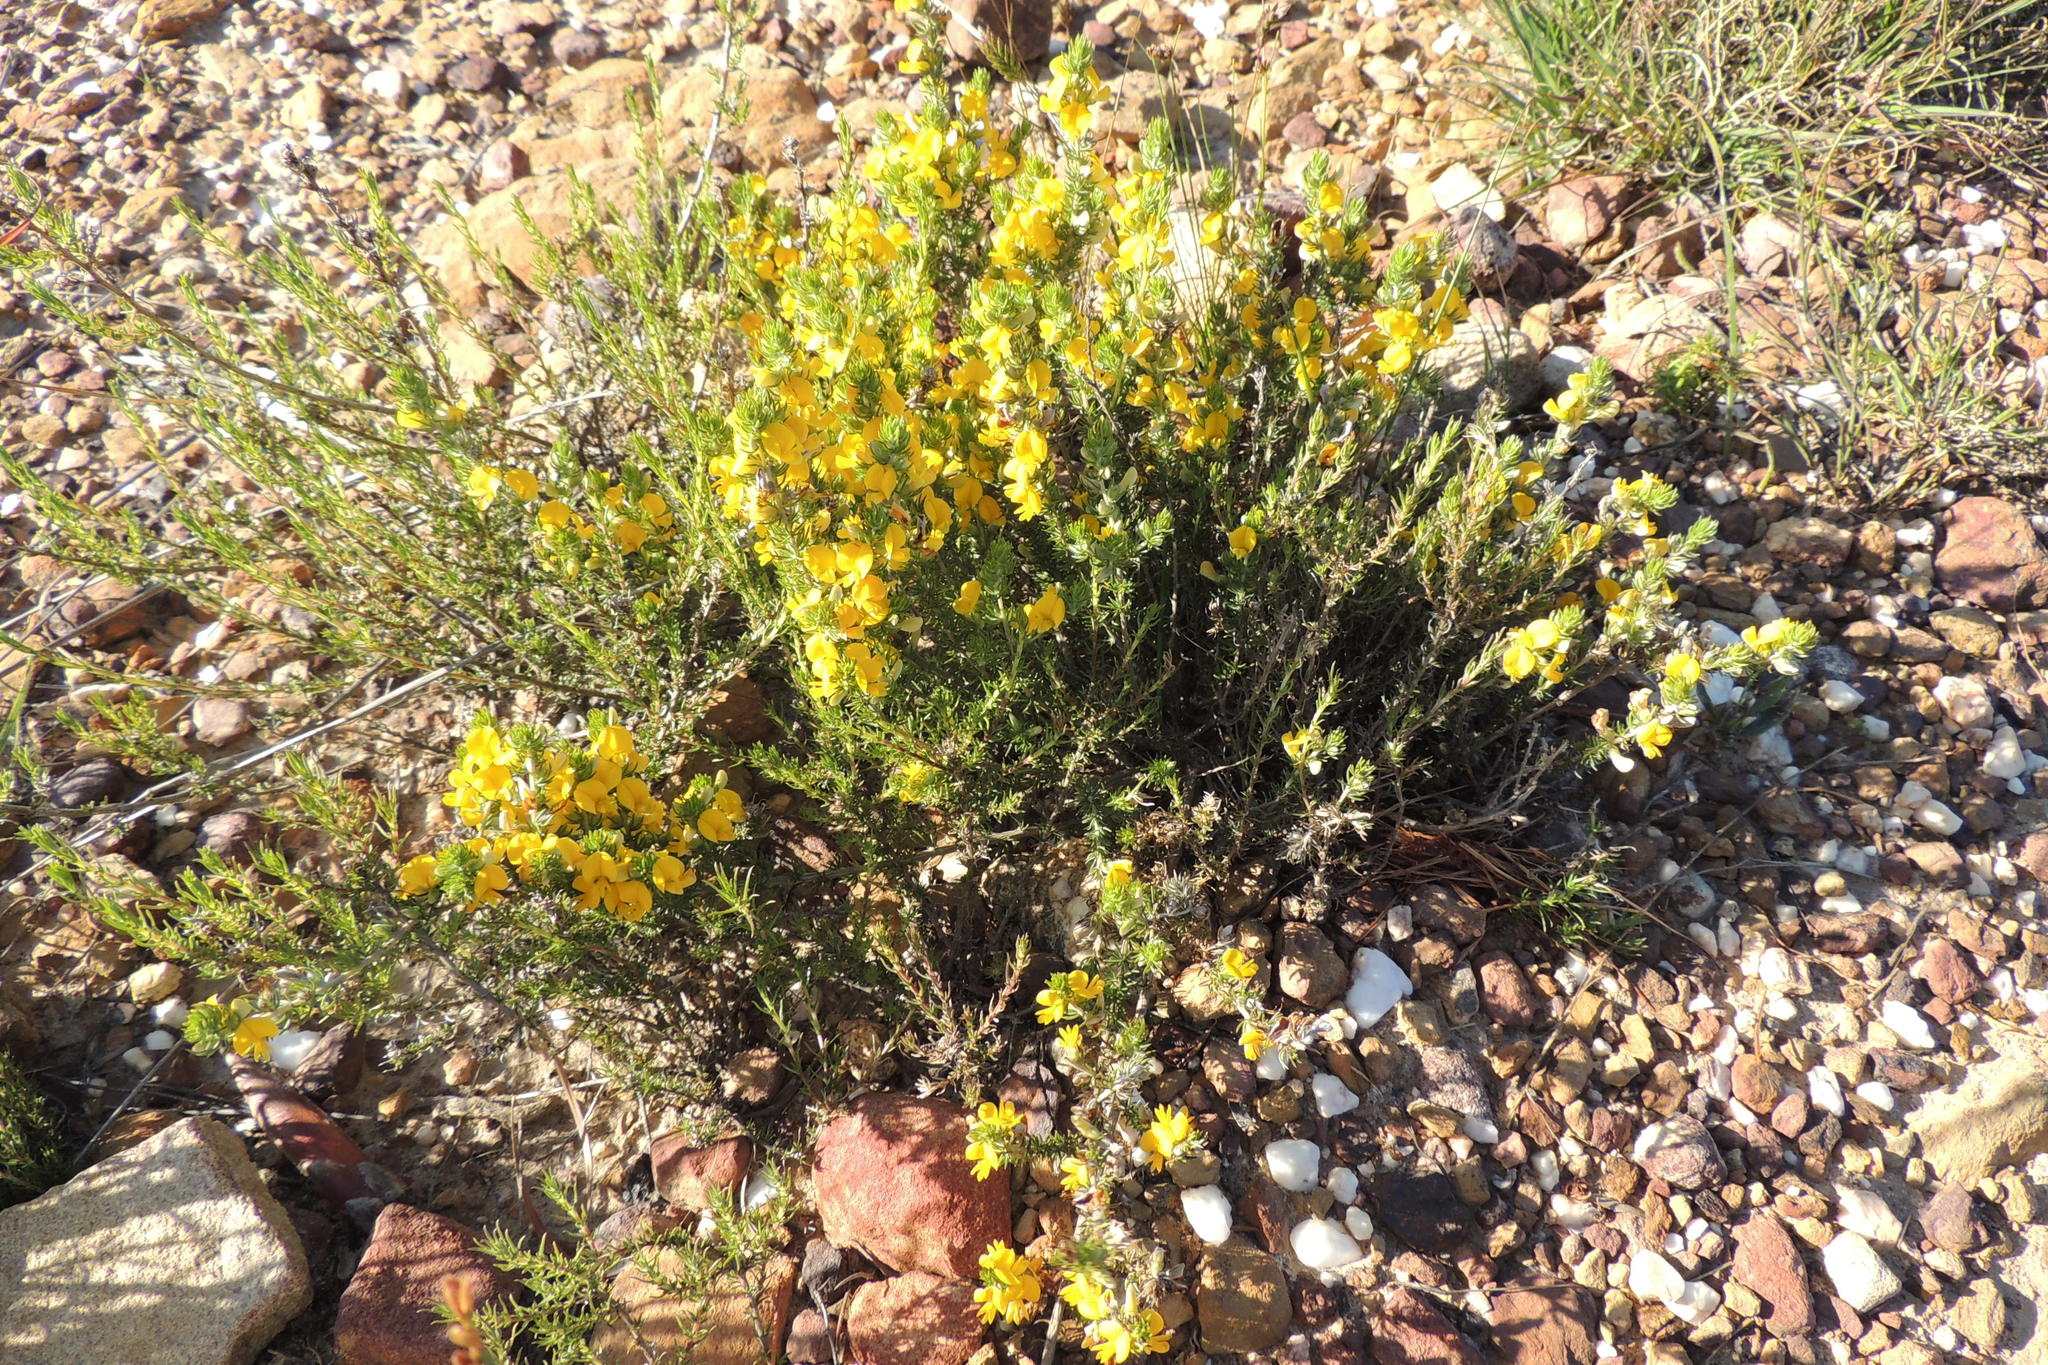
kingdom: Plantae
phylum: Tracheophyta
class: Magnoliopsida
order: Fabales
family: Fabaceae
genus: Aspalathus
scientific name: Aspalathus hirta
